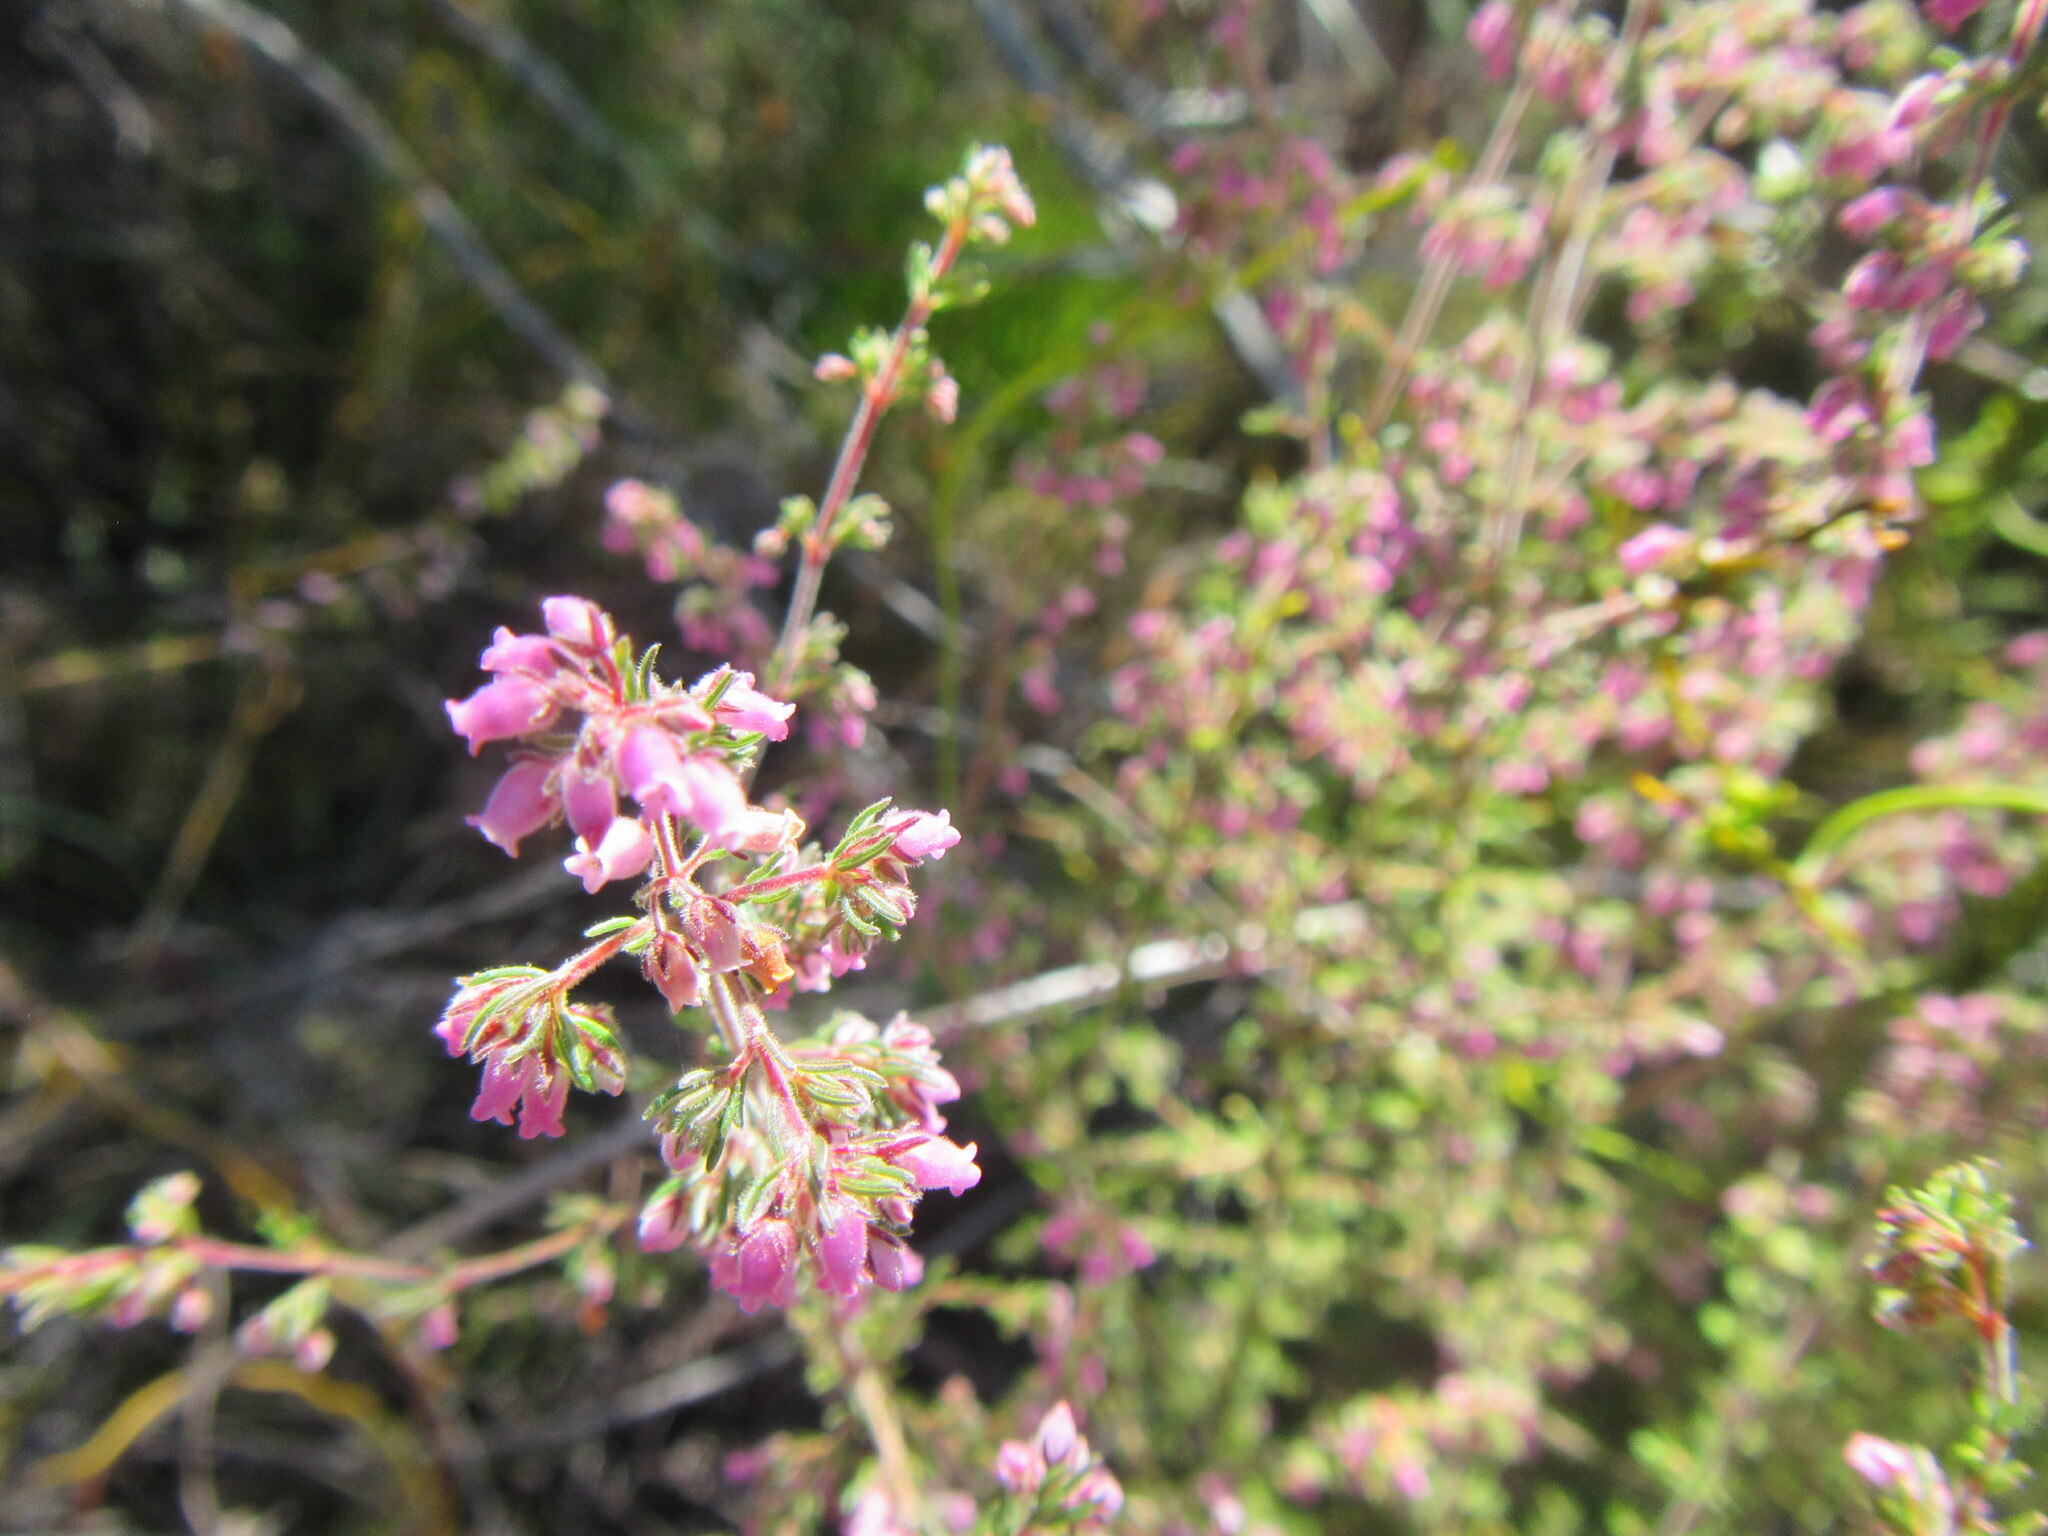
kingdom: Plantae
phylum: Tracheophyta
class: Magnoliopsida
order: Ericales
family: Ericaceae
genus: Erica
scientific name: Erica parviflora
